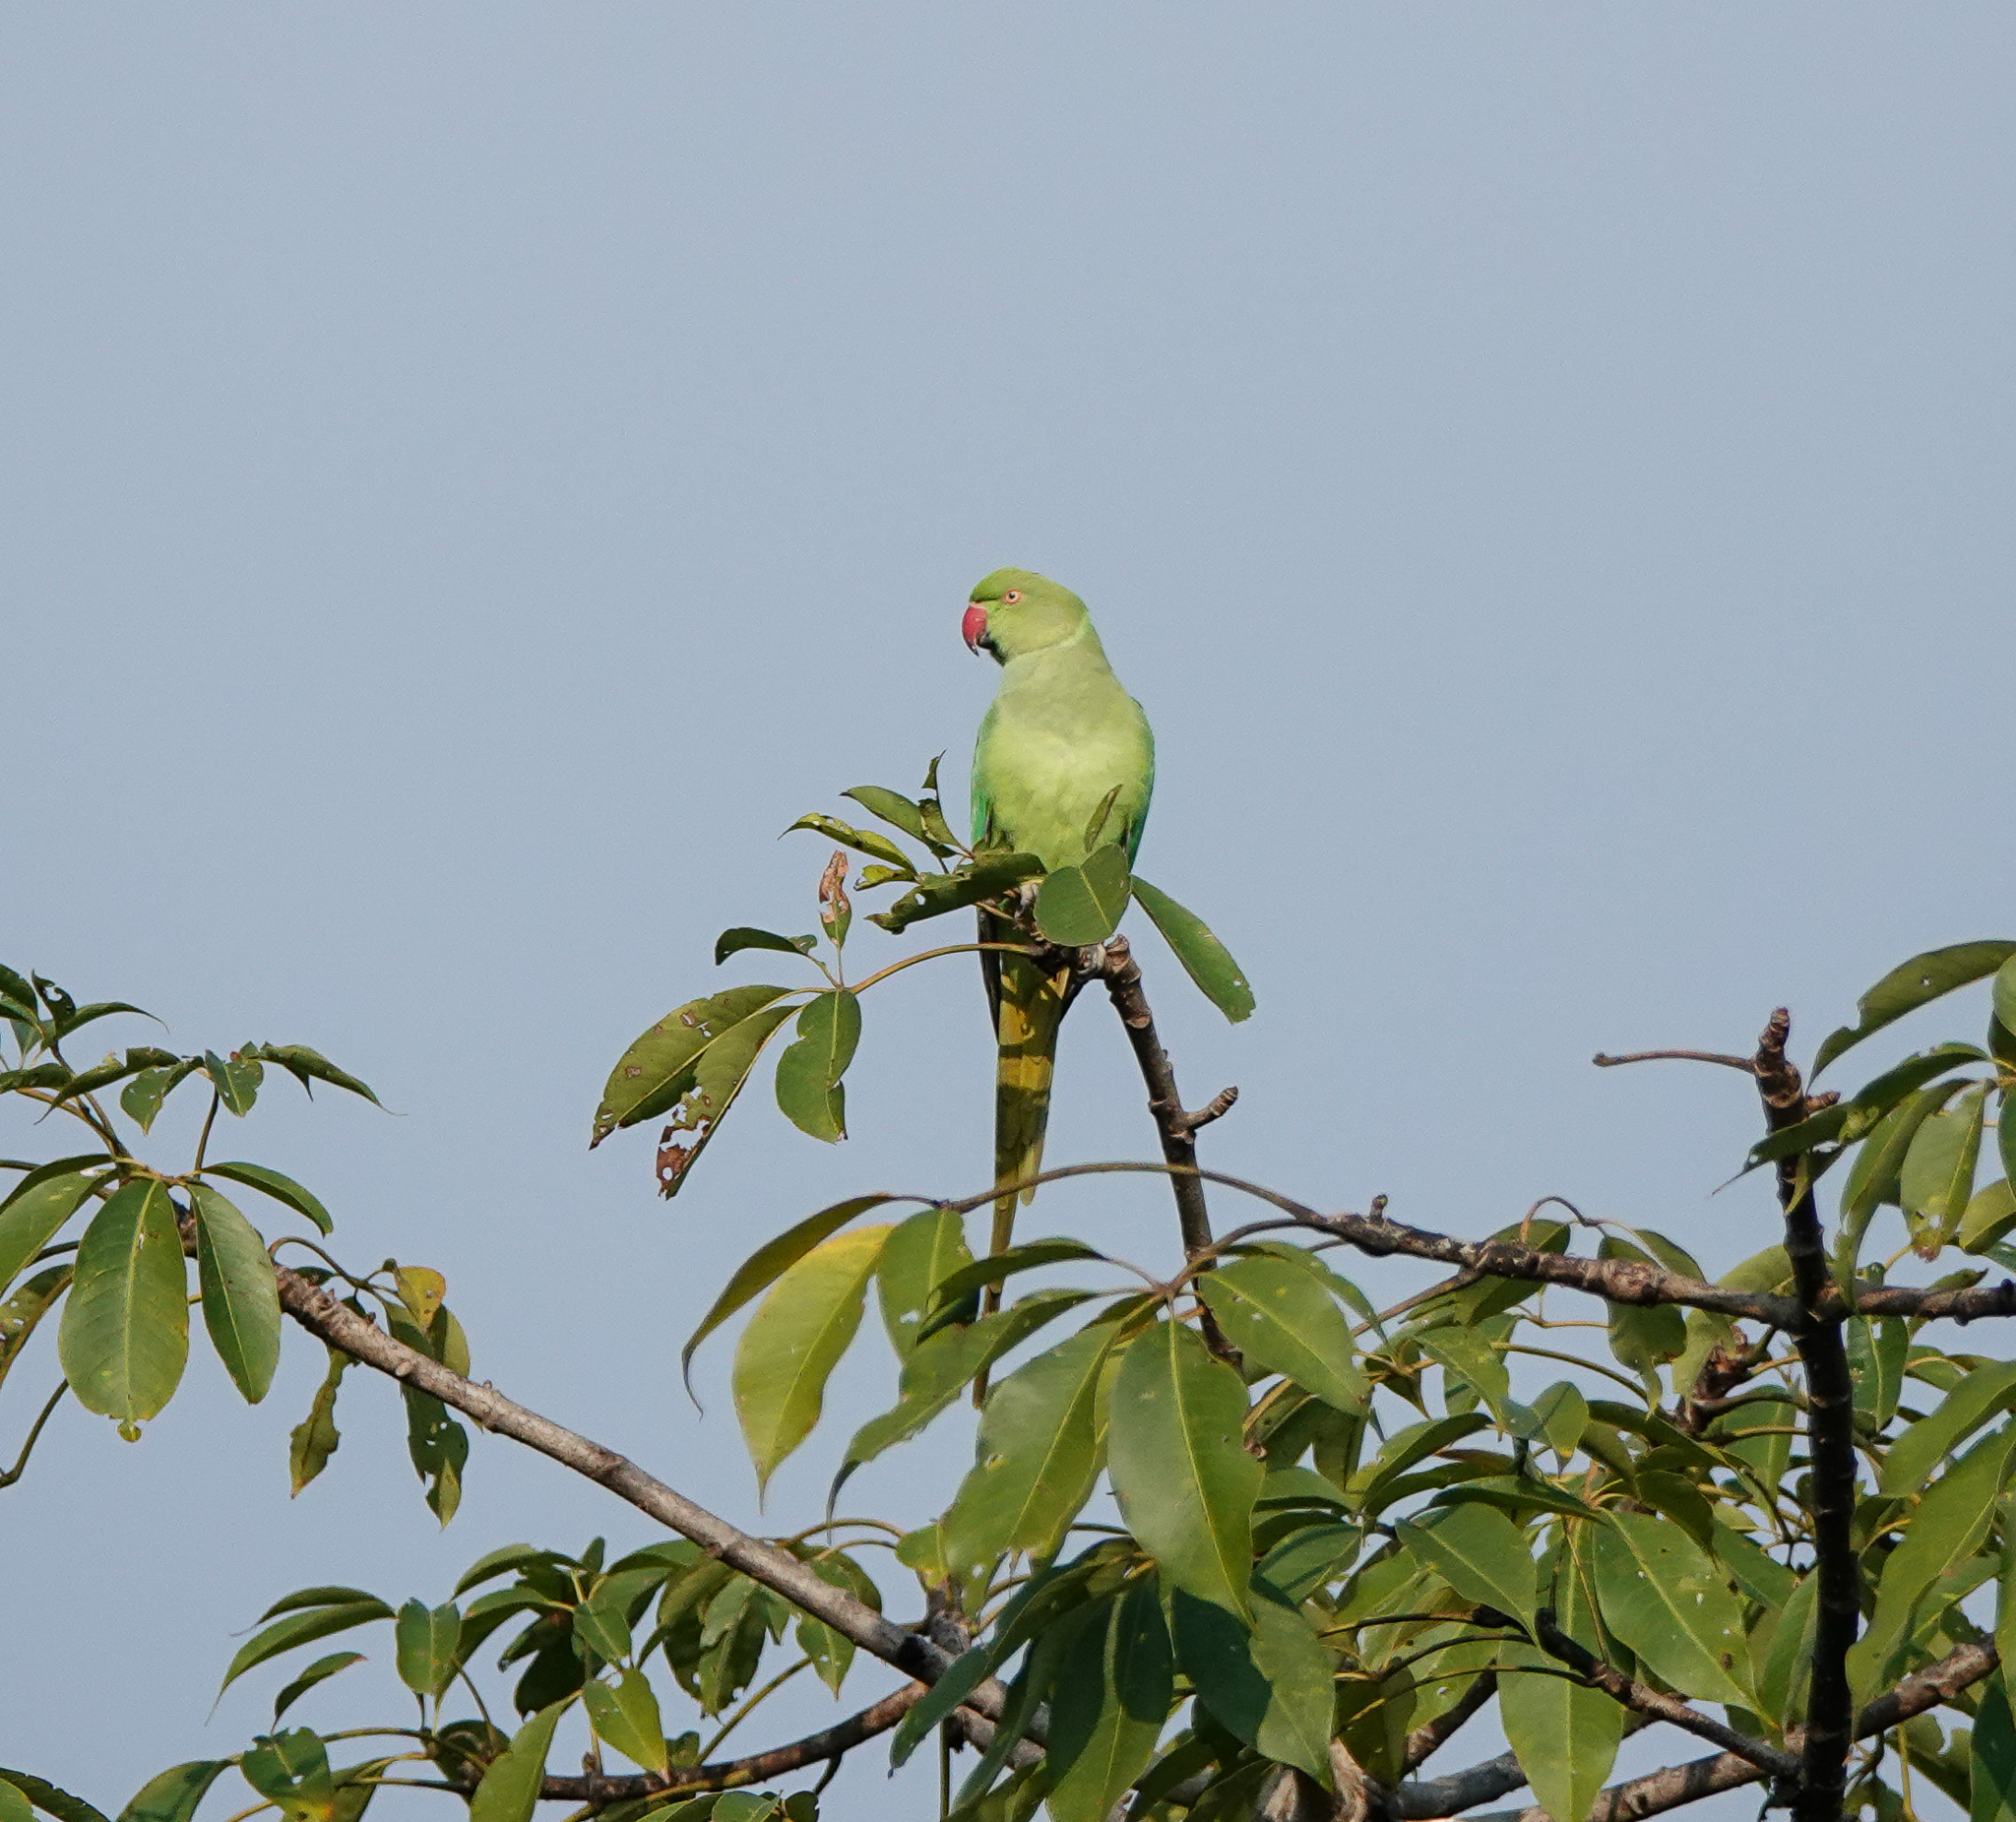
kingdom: Animalia
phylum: Chordata
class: Aves
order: Psittaciformes
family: Psittacidae
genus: Psittacula
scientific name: Psittacula krameri
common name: Rose-ringed parakeet
